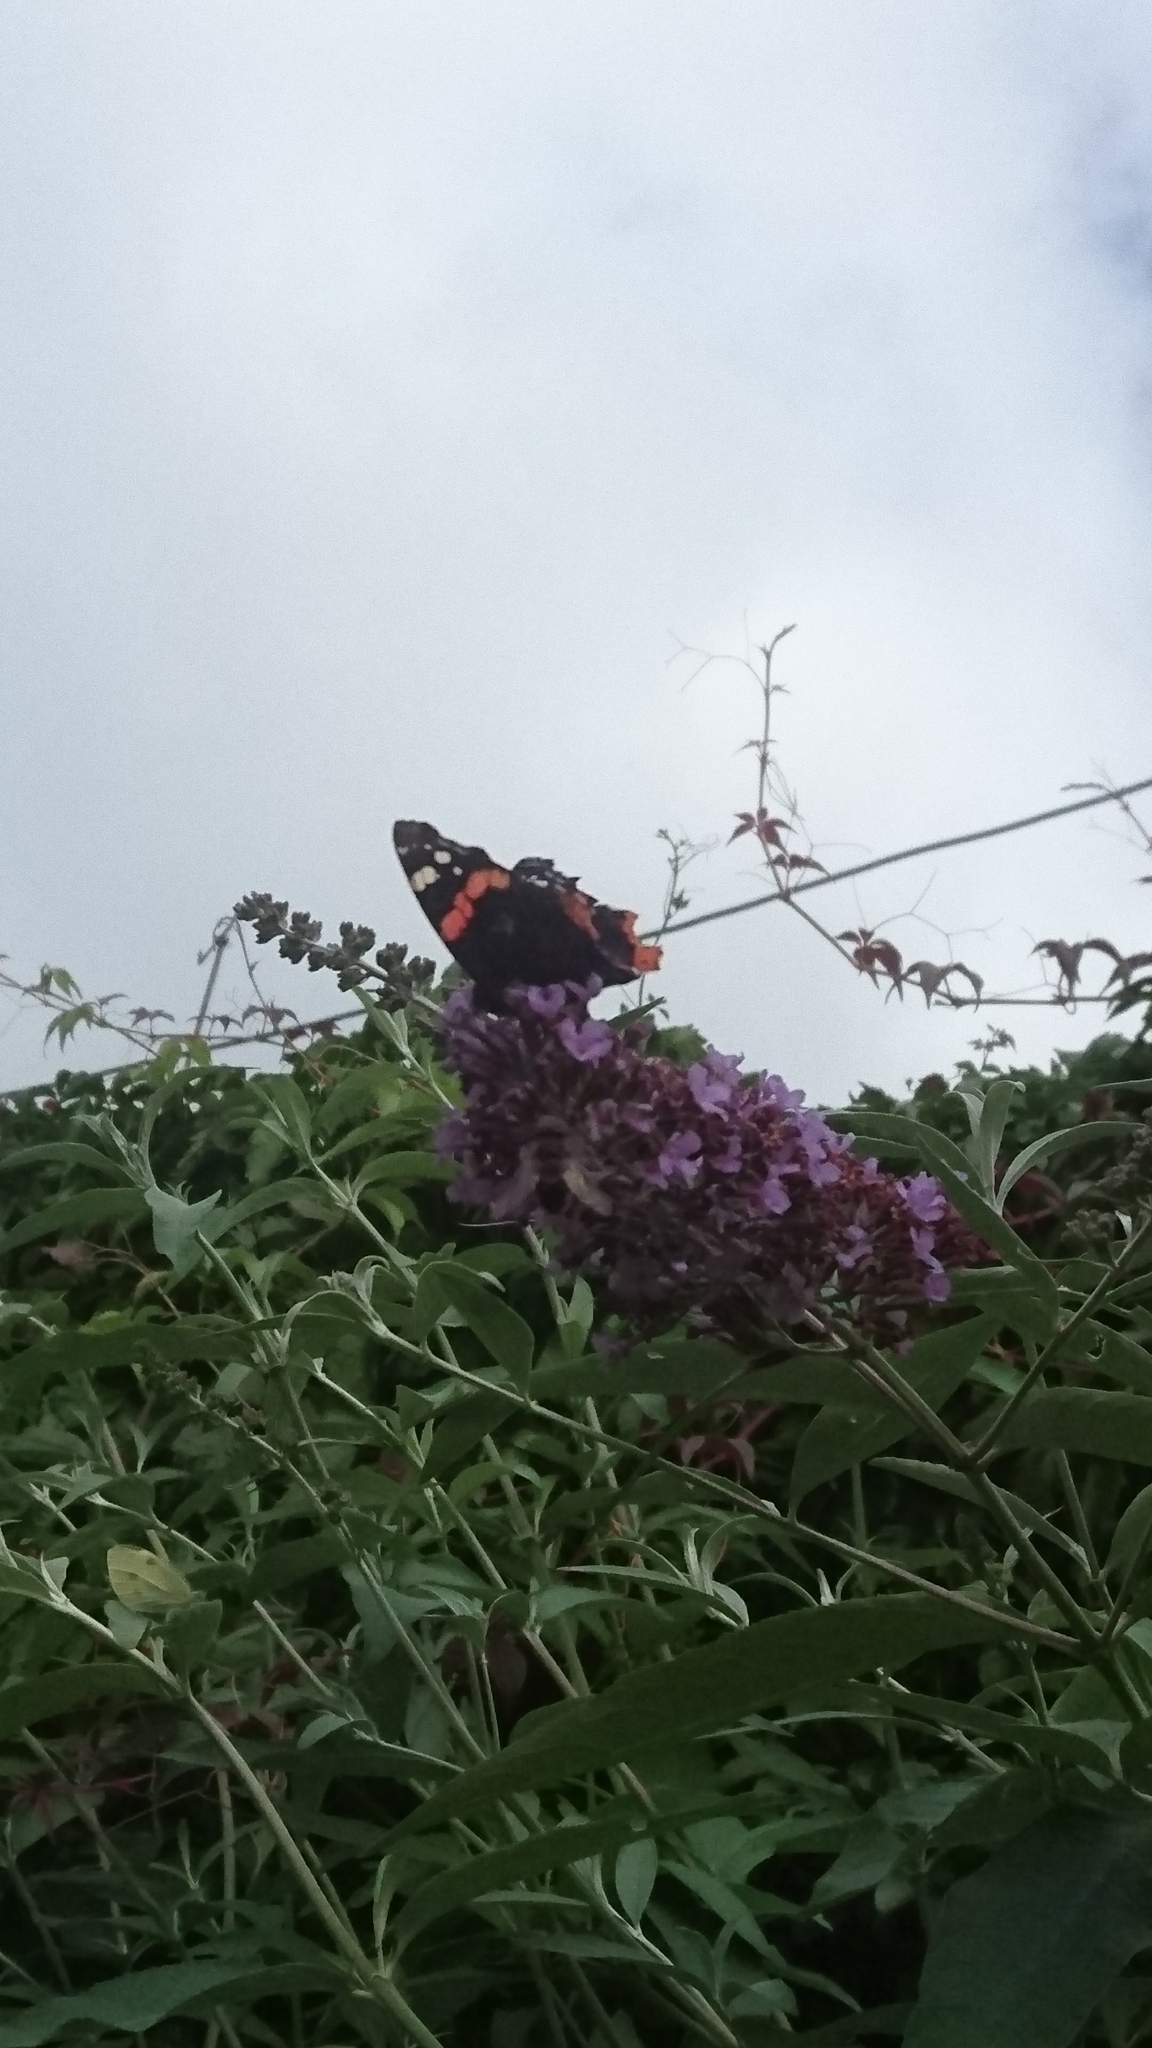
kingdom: Animalia
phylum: Arthropoda
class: Insecta
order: Lepidoptera
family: Nymphalidae
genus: Vanessa
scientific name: Vanessa atalanta
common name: Red admiral
